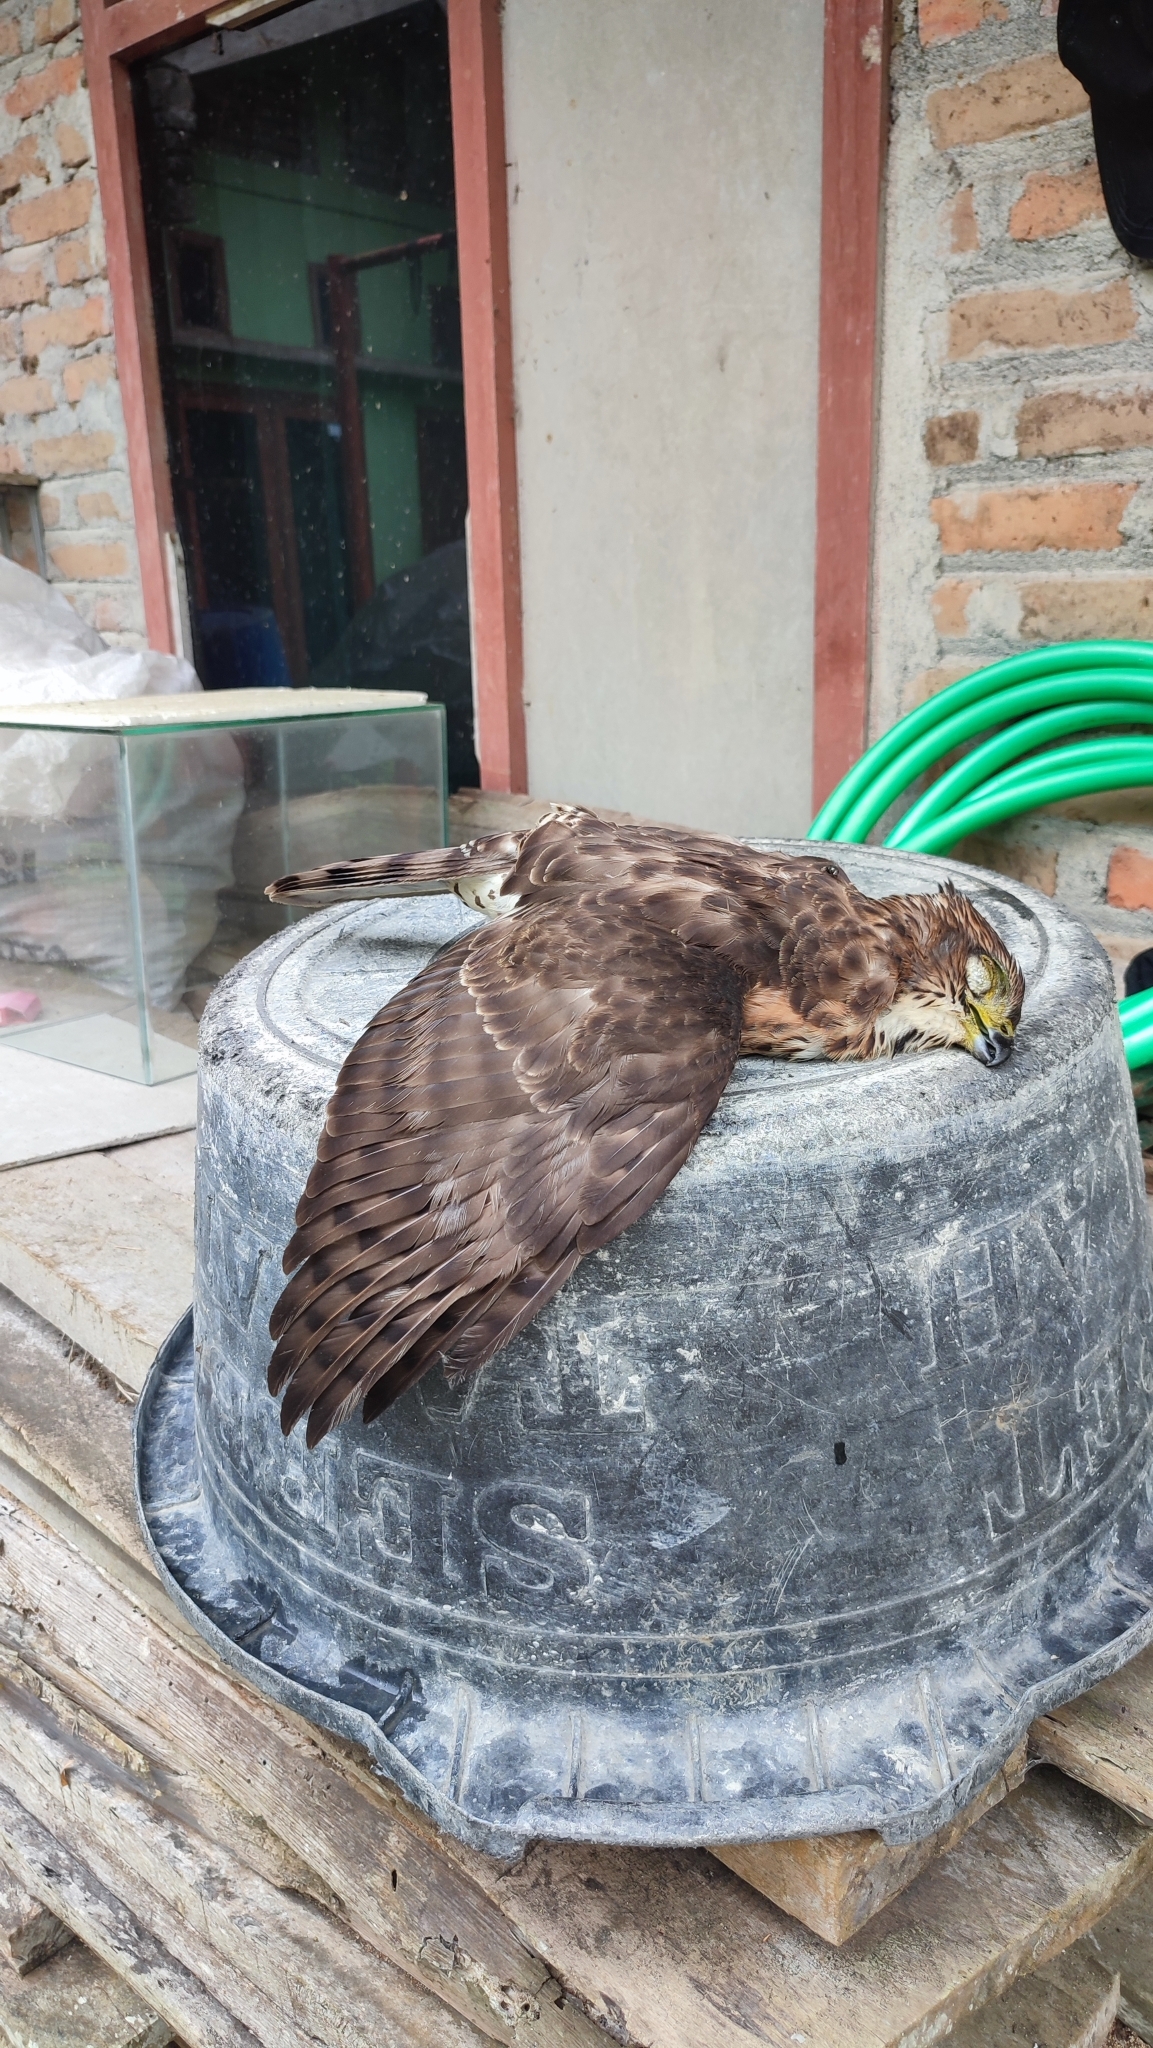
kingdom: Animalia
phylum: Chordata
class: Aves
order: Accipitriformes
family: Accipitridae
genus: Accipiter
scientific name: Accipiter trivirgatus
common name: Crested goshawk
